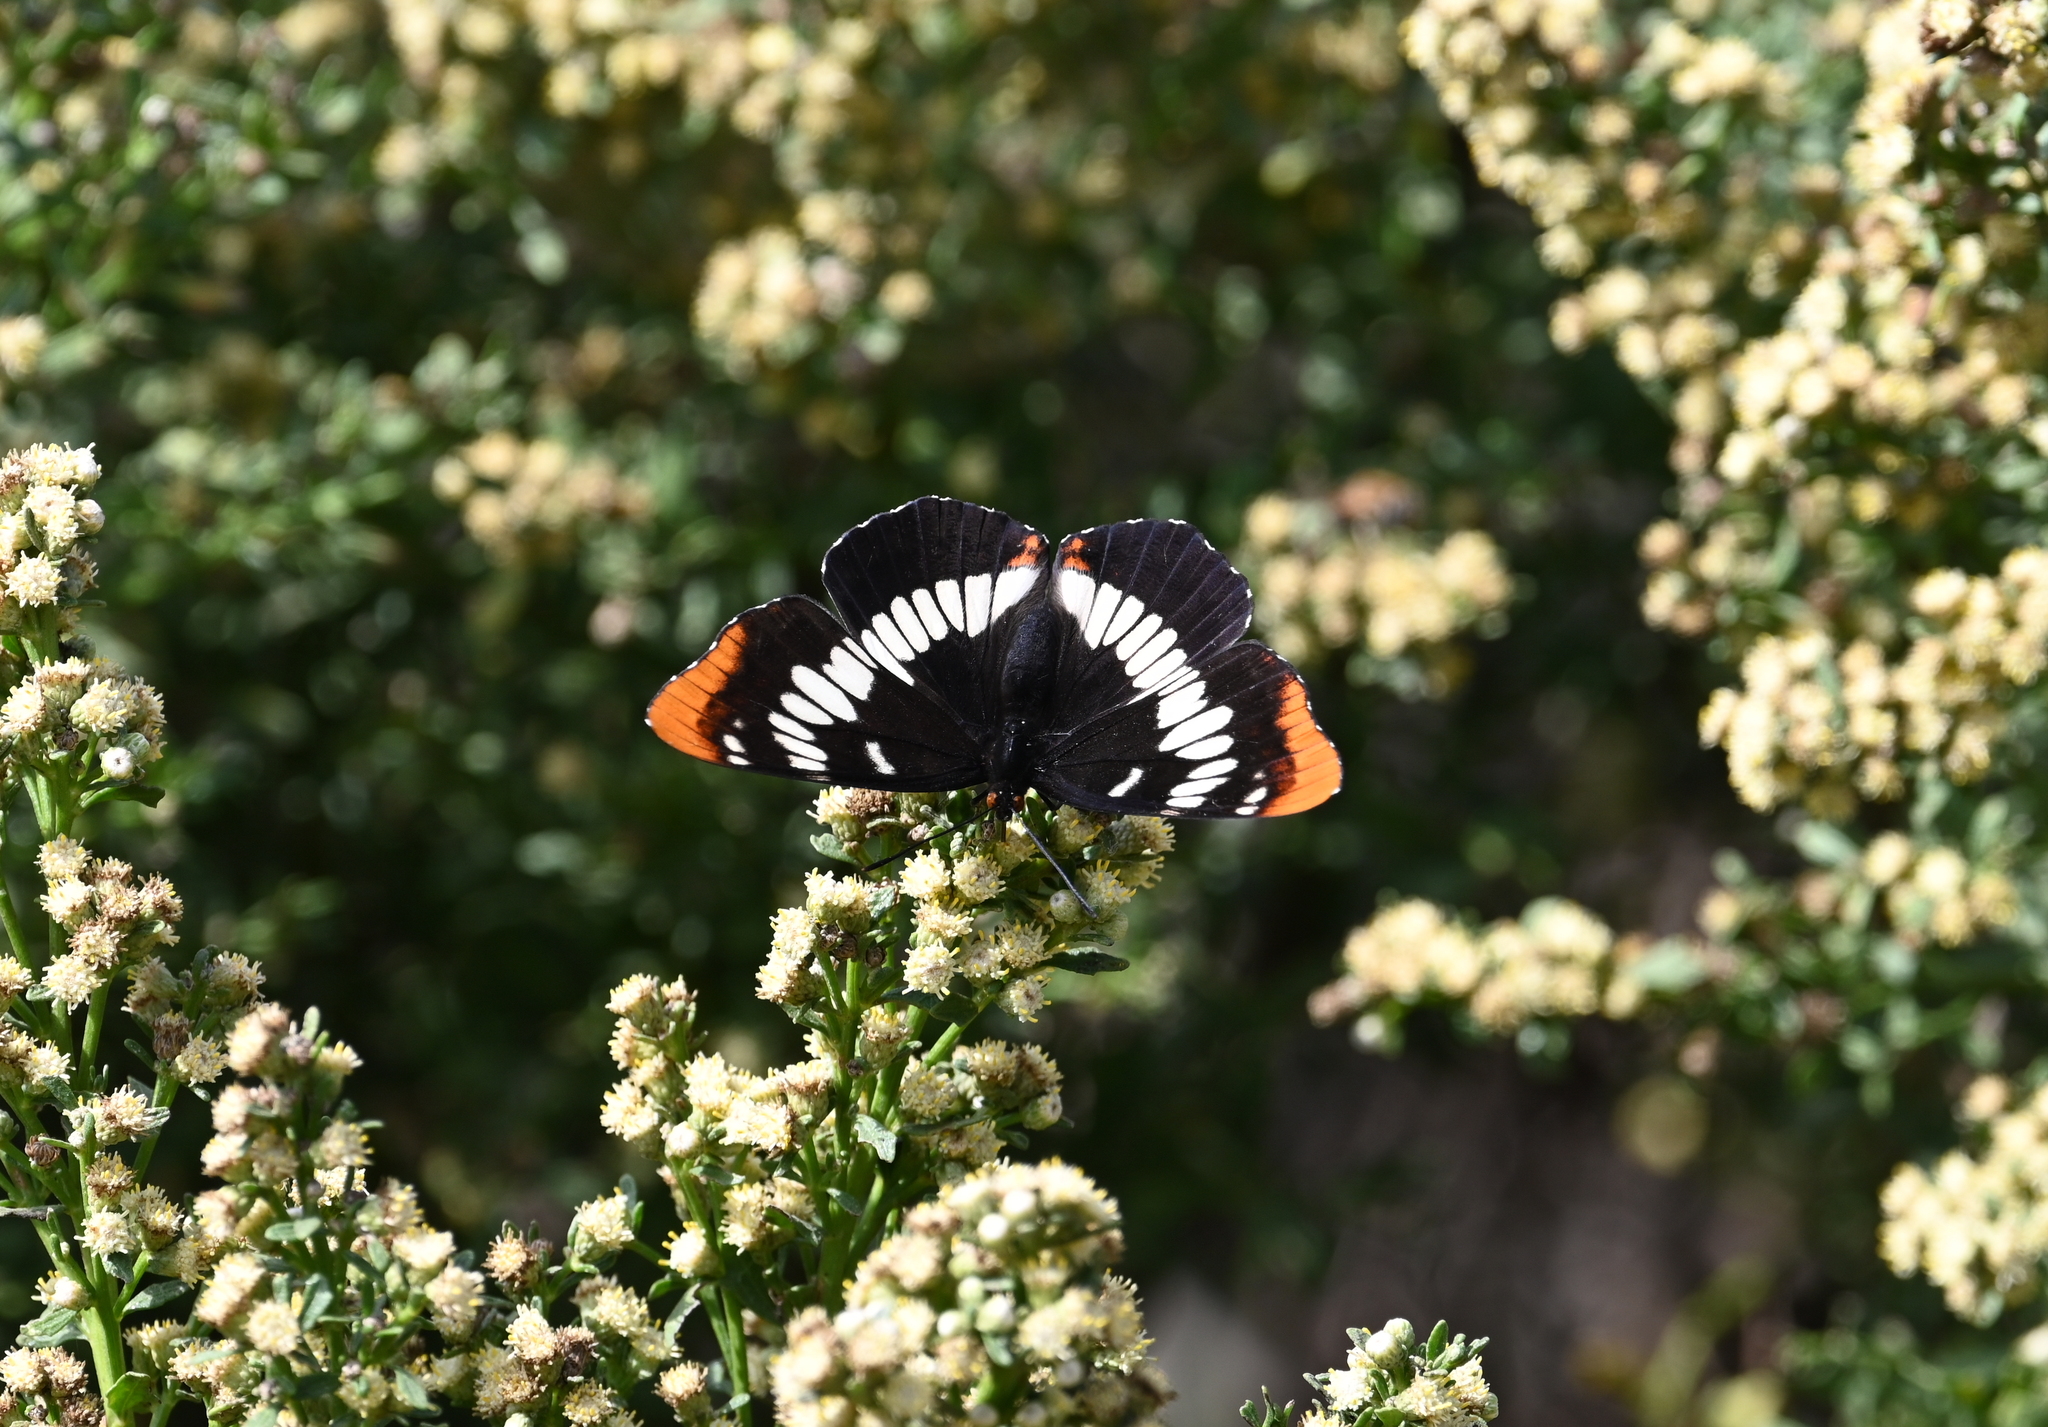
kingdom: Animalia
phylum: Arthropoda
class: Insecta
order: Lepidoptera
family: Nymphalidae
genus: Limenitis
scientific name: Limenitis lorquini
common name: Lorquin's admiral
